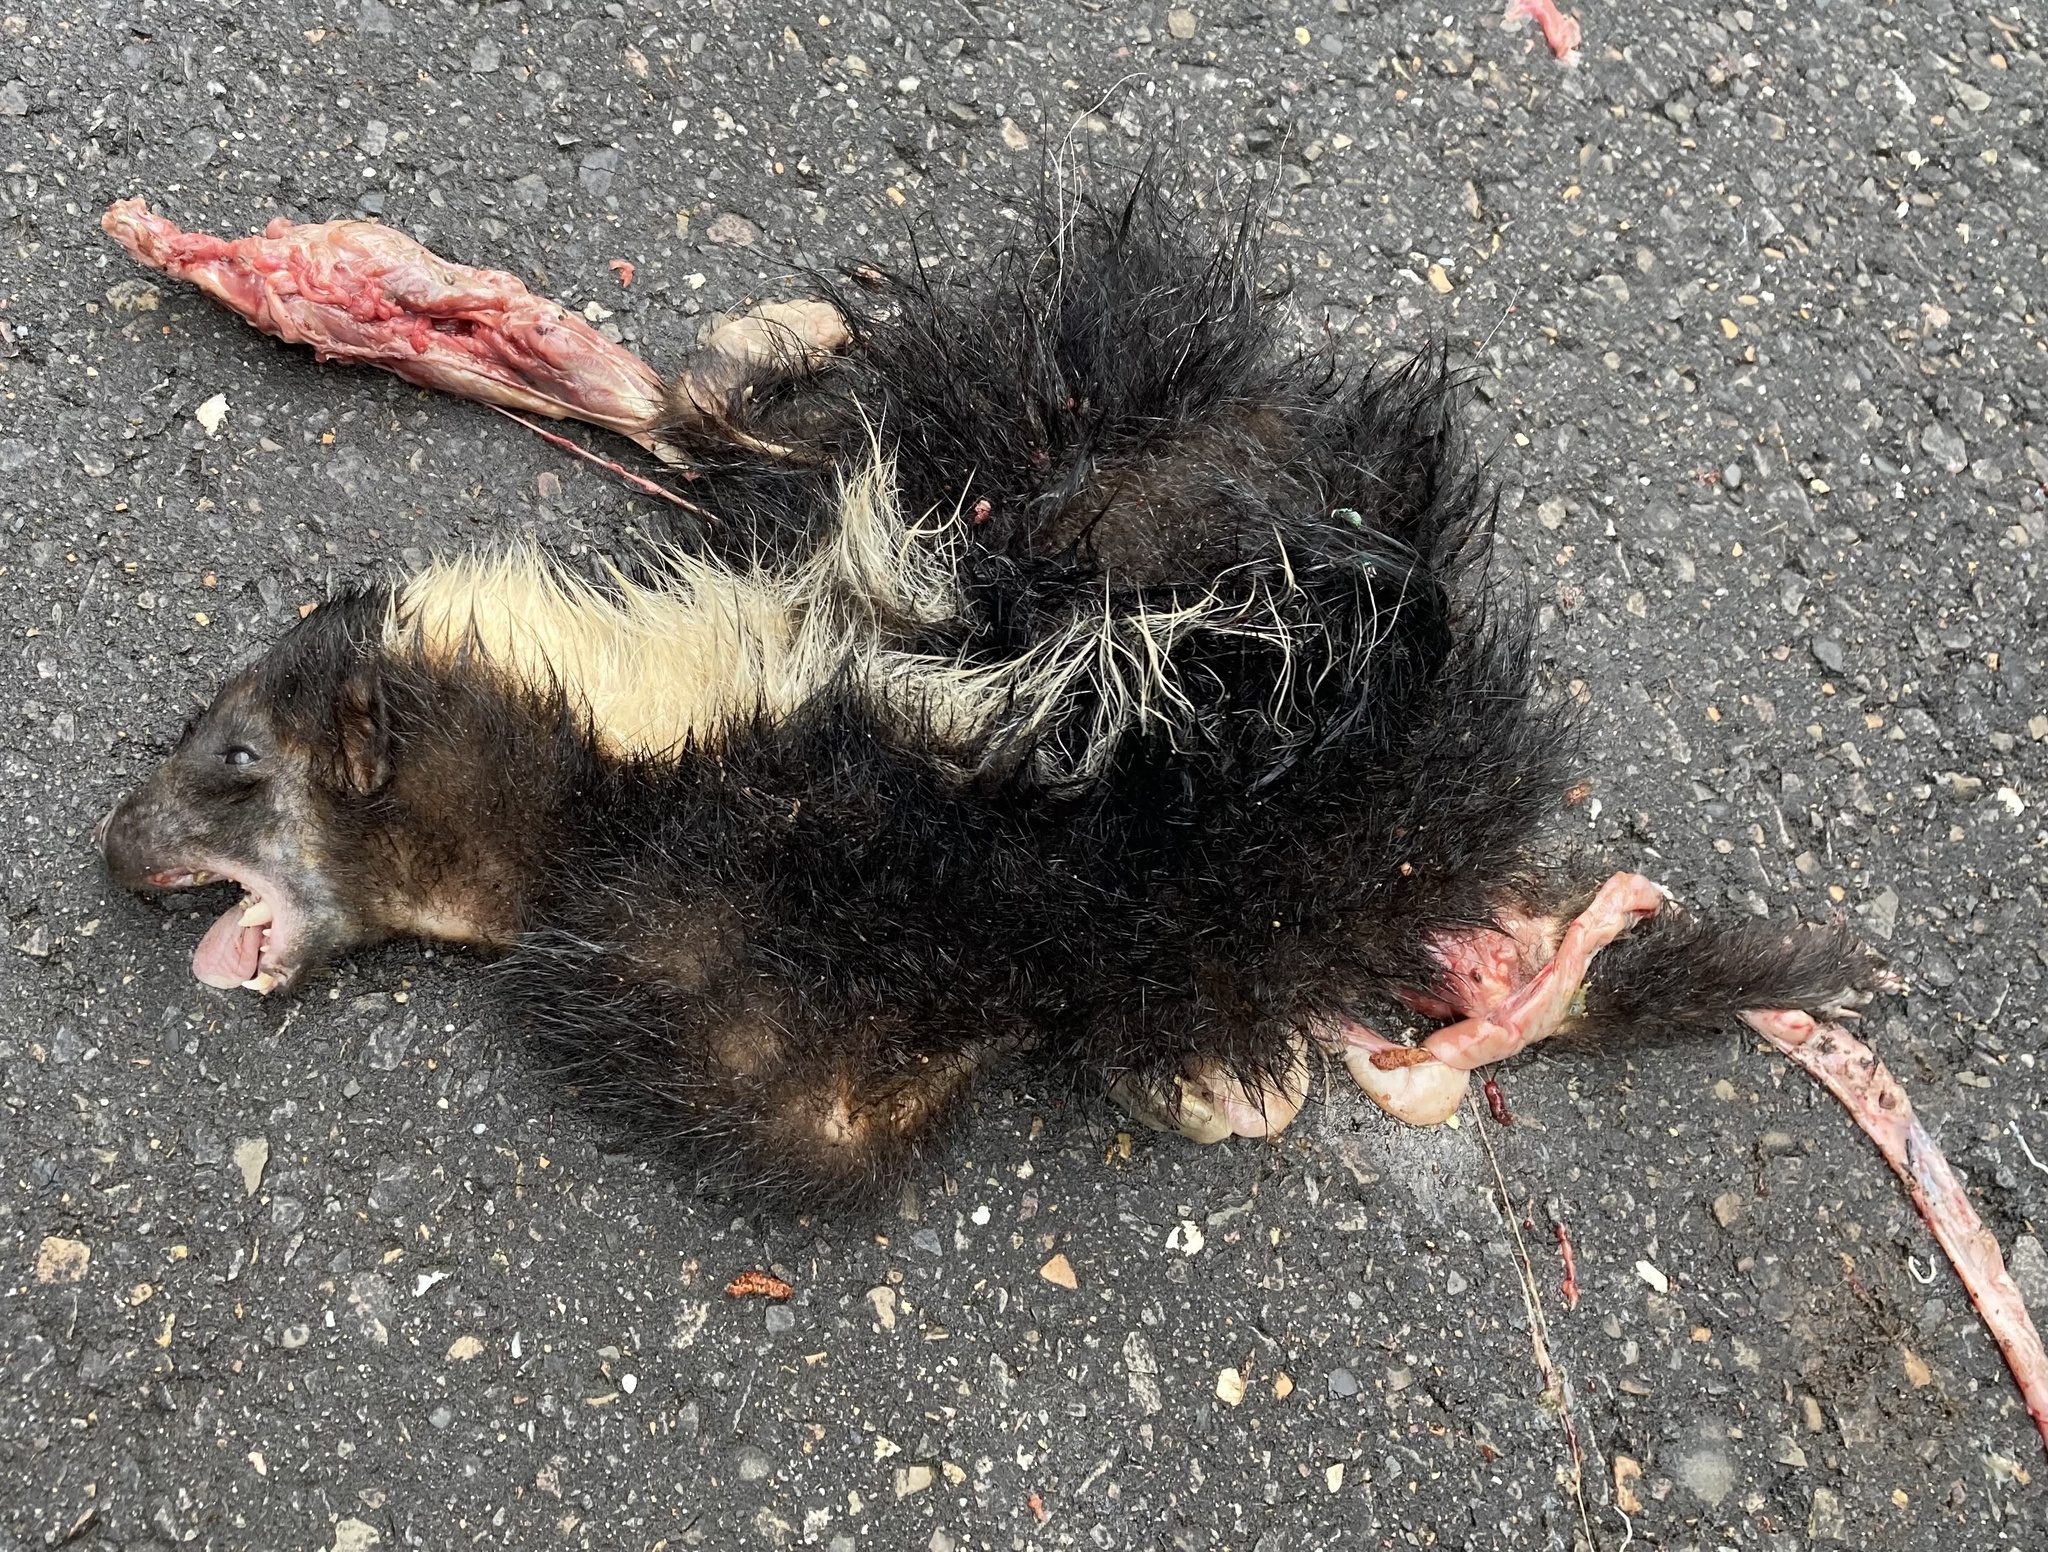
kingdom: Animalia
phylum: Chordata
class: Mammalia
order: Carnivora
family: Mephitidae
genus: Mephitis
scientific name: Mephitis mephitis
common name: Striped skunk
